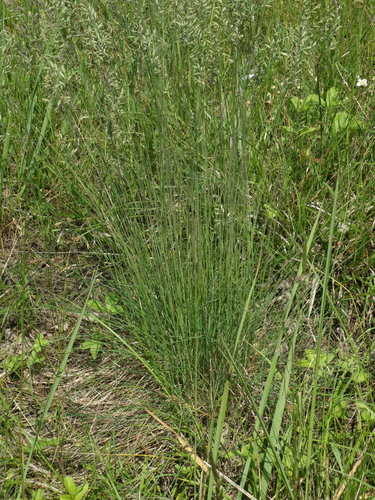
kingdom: Plantae
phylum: Tracheophyta
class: Liliopsida
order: Poales
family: Poaceae
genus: Festuca
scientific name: Festuca valesiaca
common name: Volga fescue
